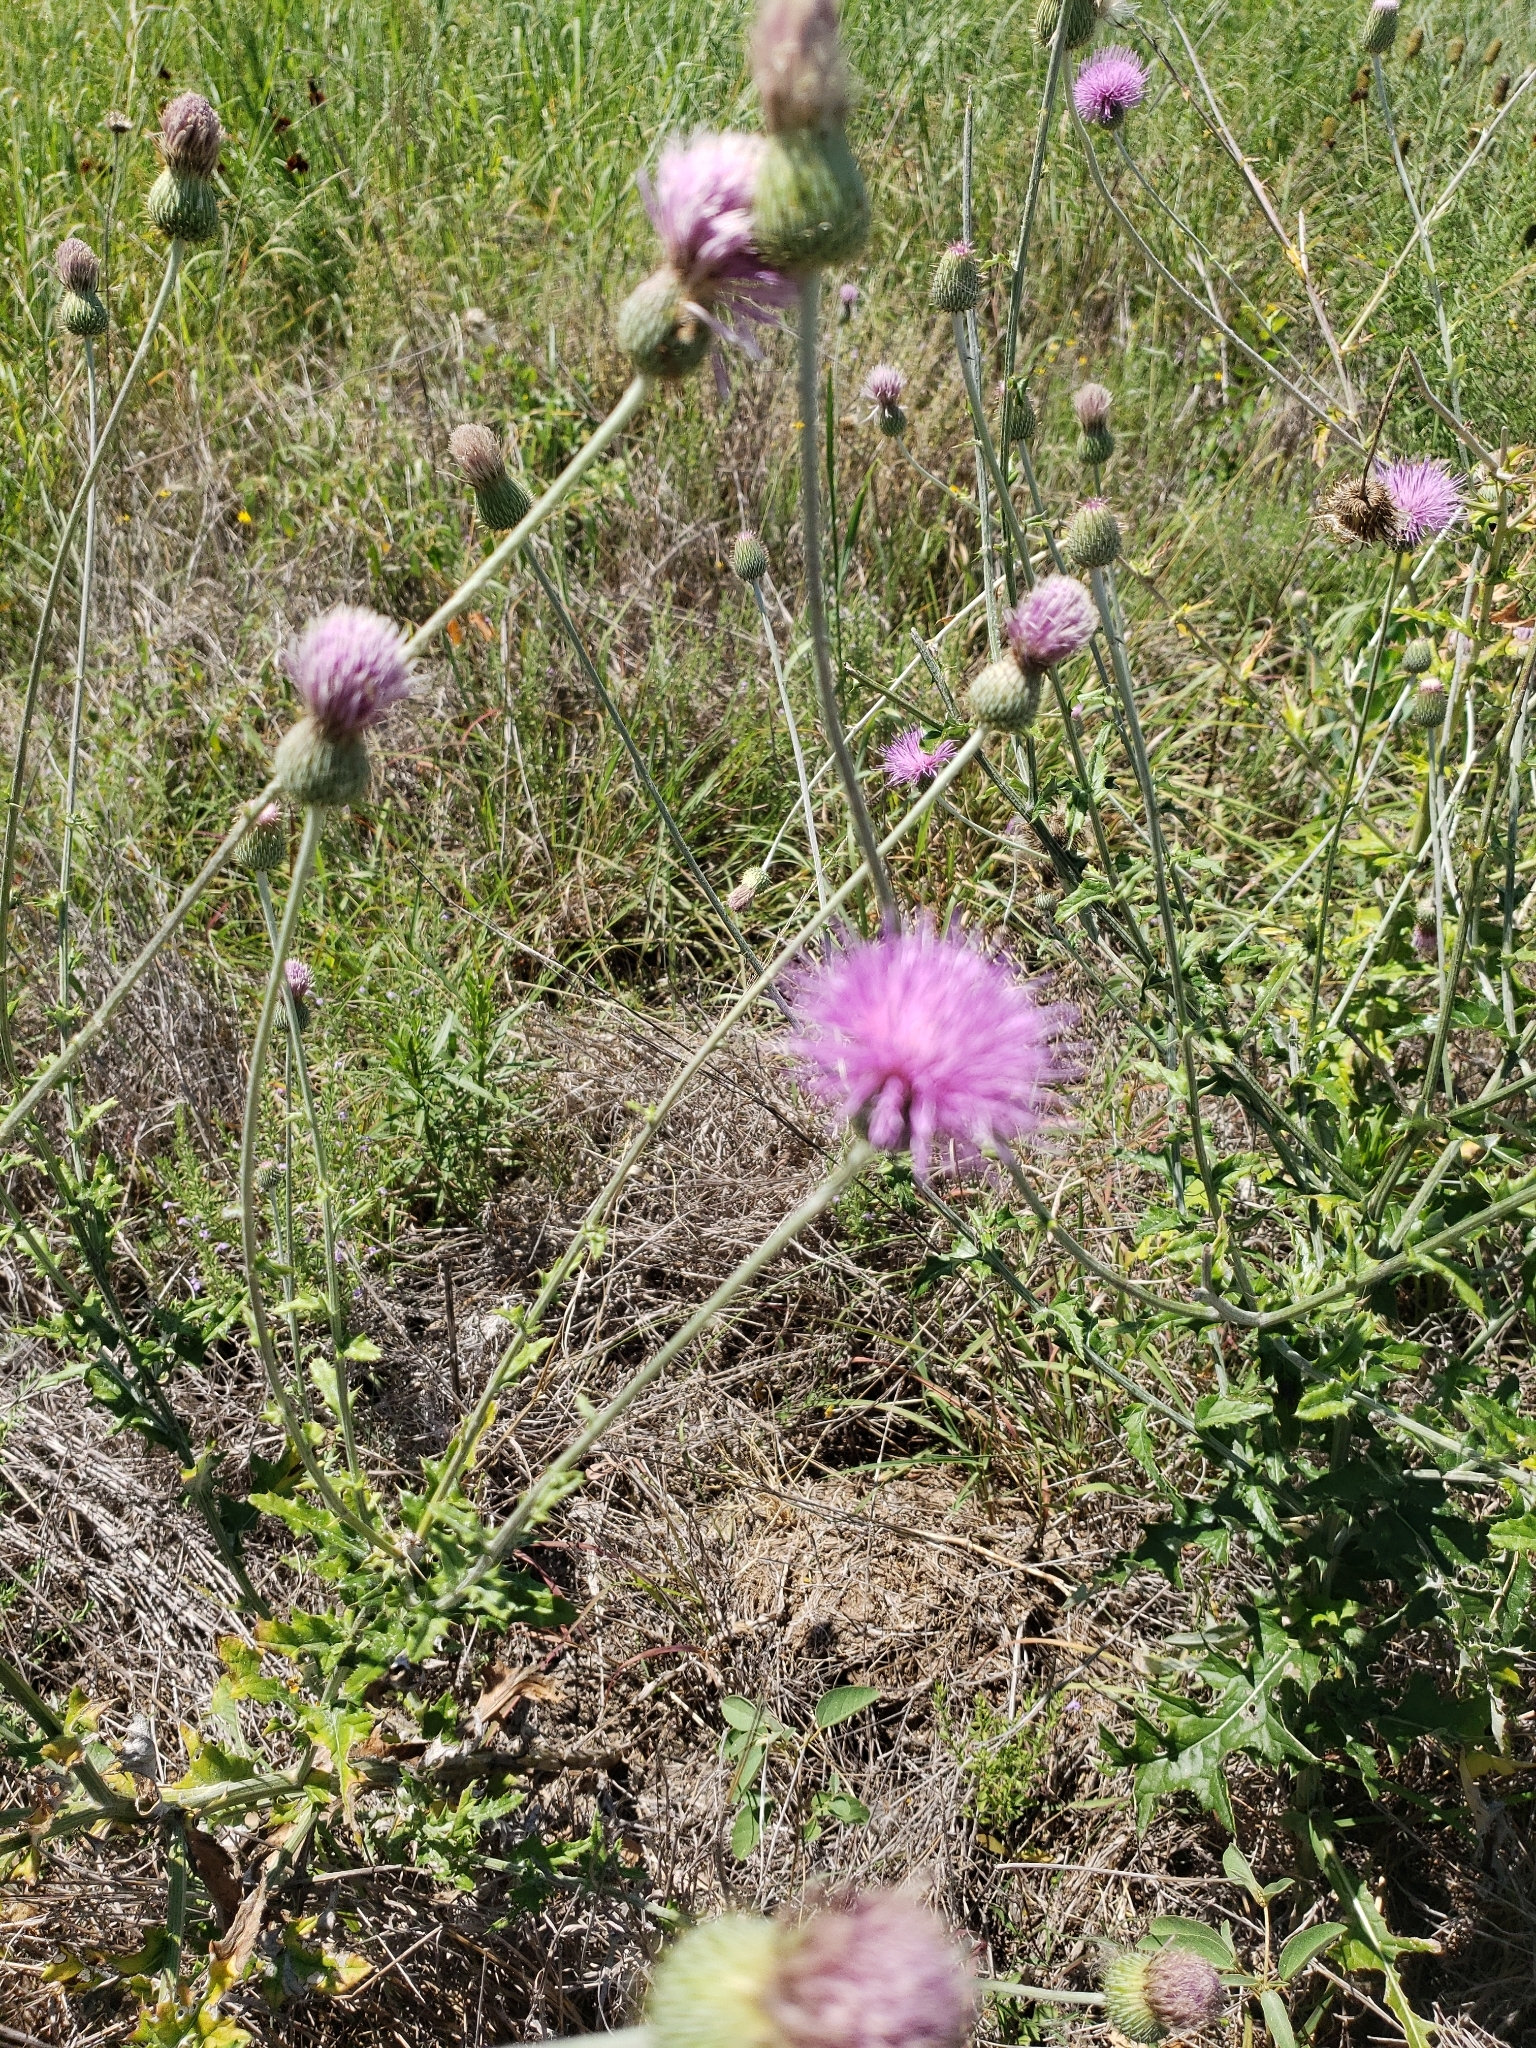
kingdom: Plantae
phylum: Tracheophyta
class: Magnoliopsida
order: Asterales
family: Asteraceae
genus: Cirsium
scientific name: Cirsium texanum
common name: Texas purple thistle
